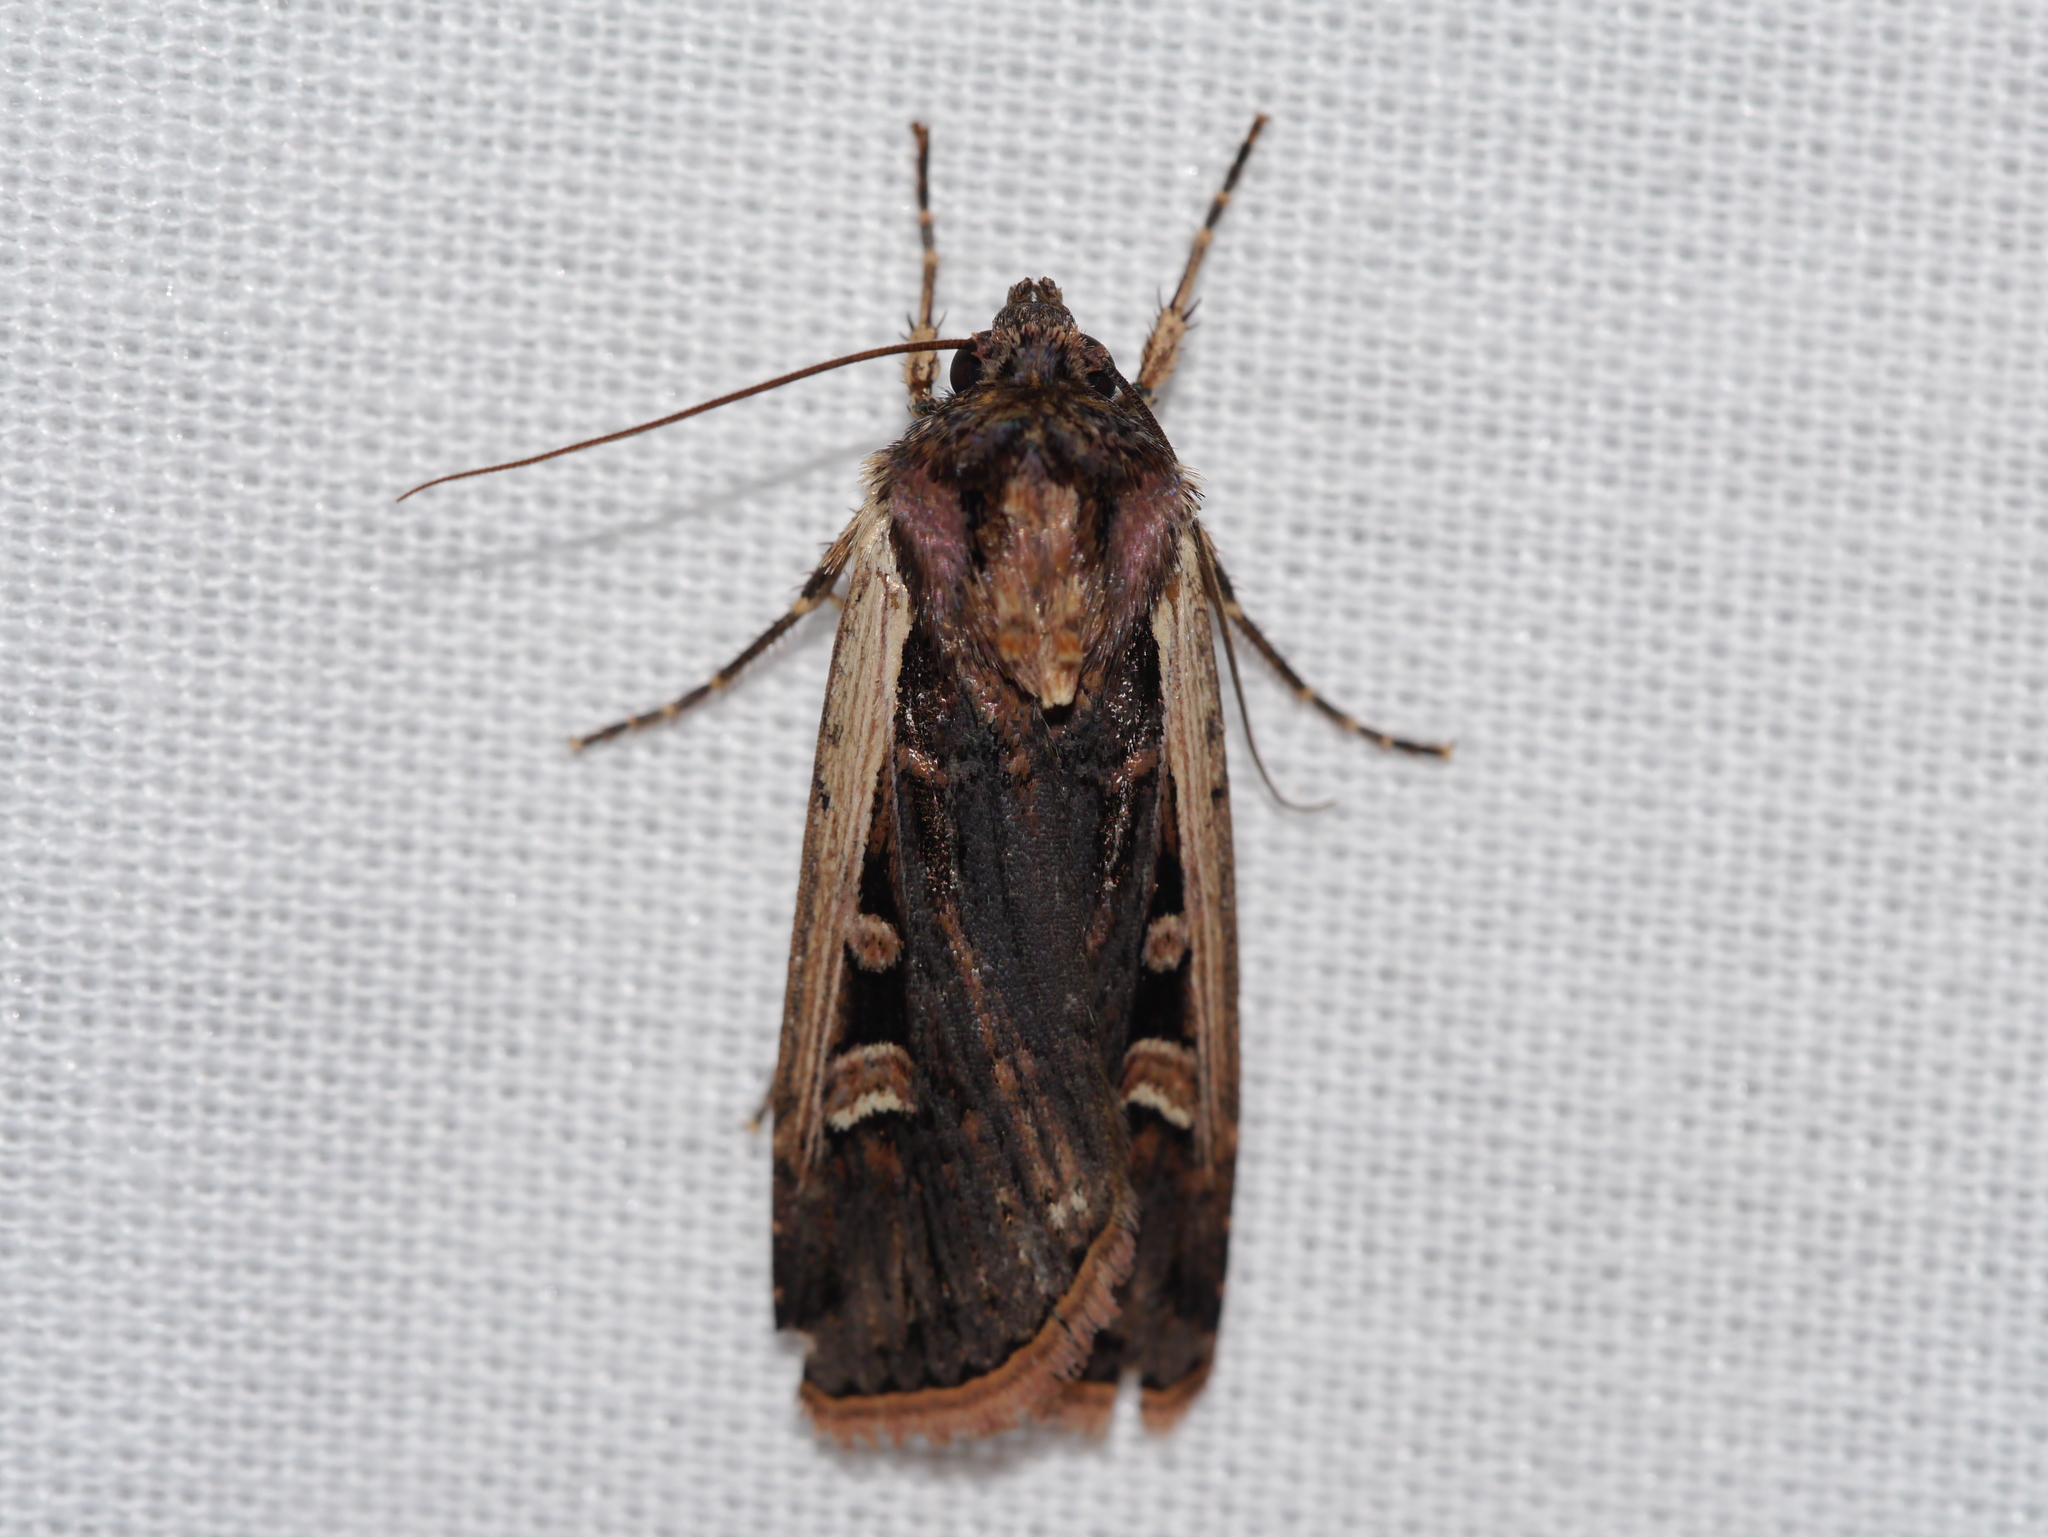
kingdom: Animalia
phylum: Arthropoda
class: Insecta
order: Lepidoptera
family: Noctuidae
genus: Striacosta
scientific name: Striacosta albicosta
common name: Western bean cutworm moth
